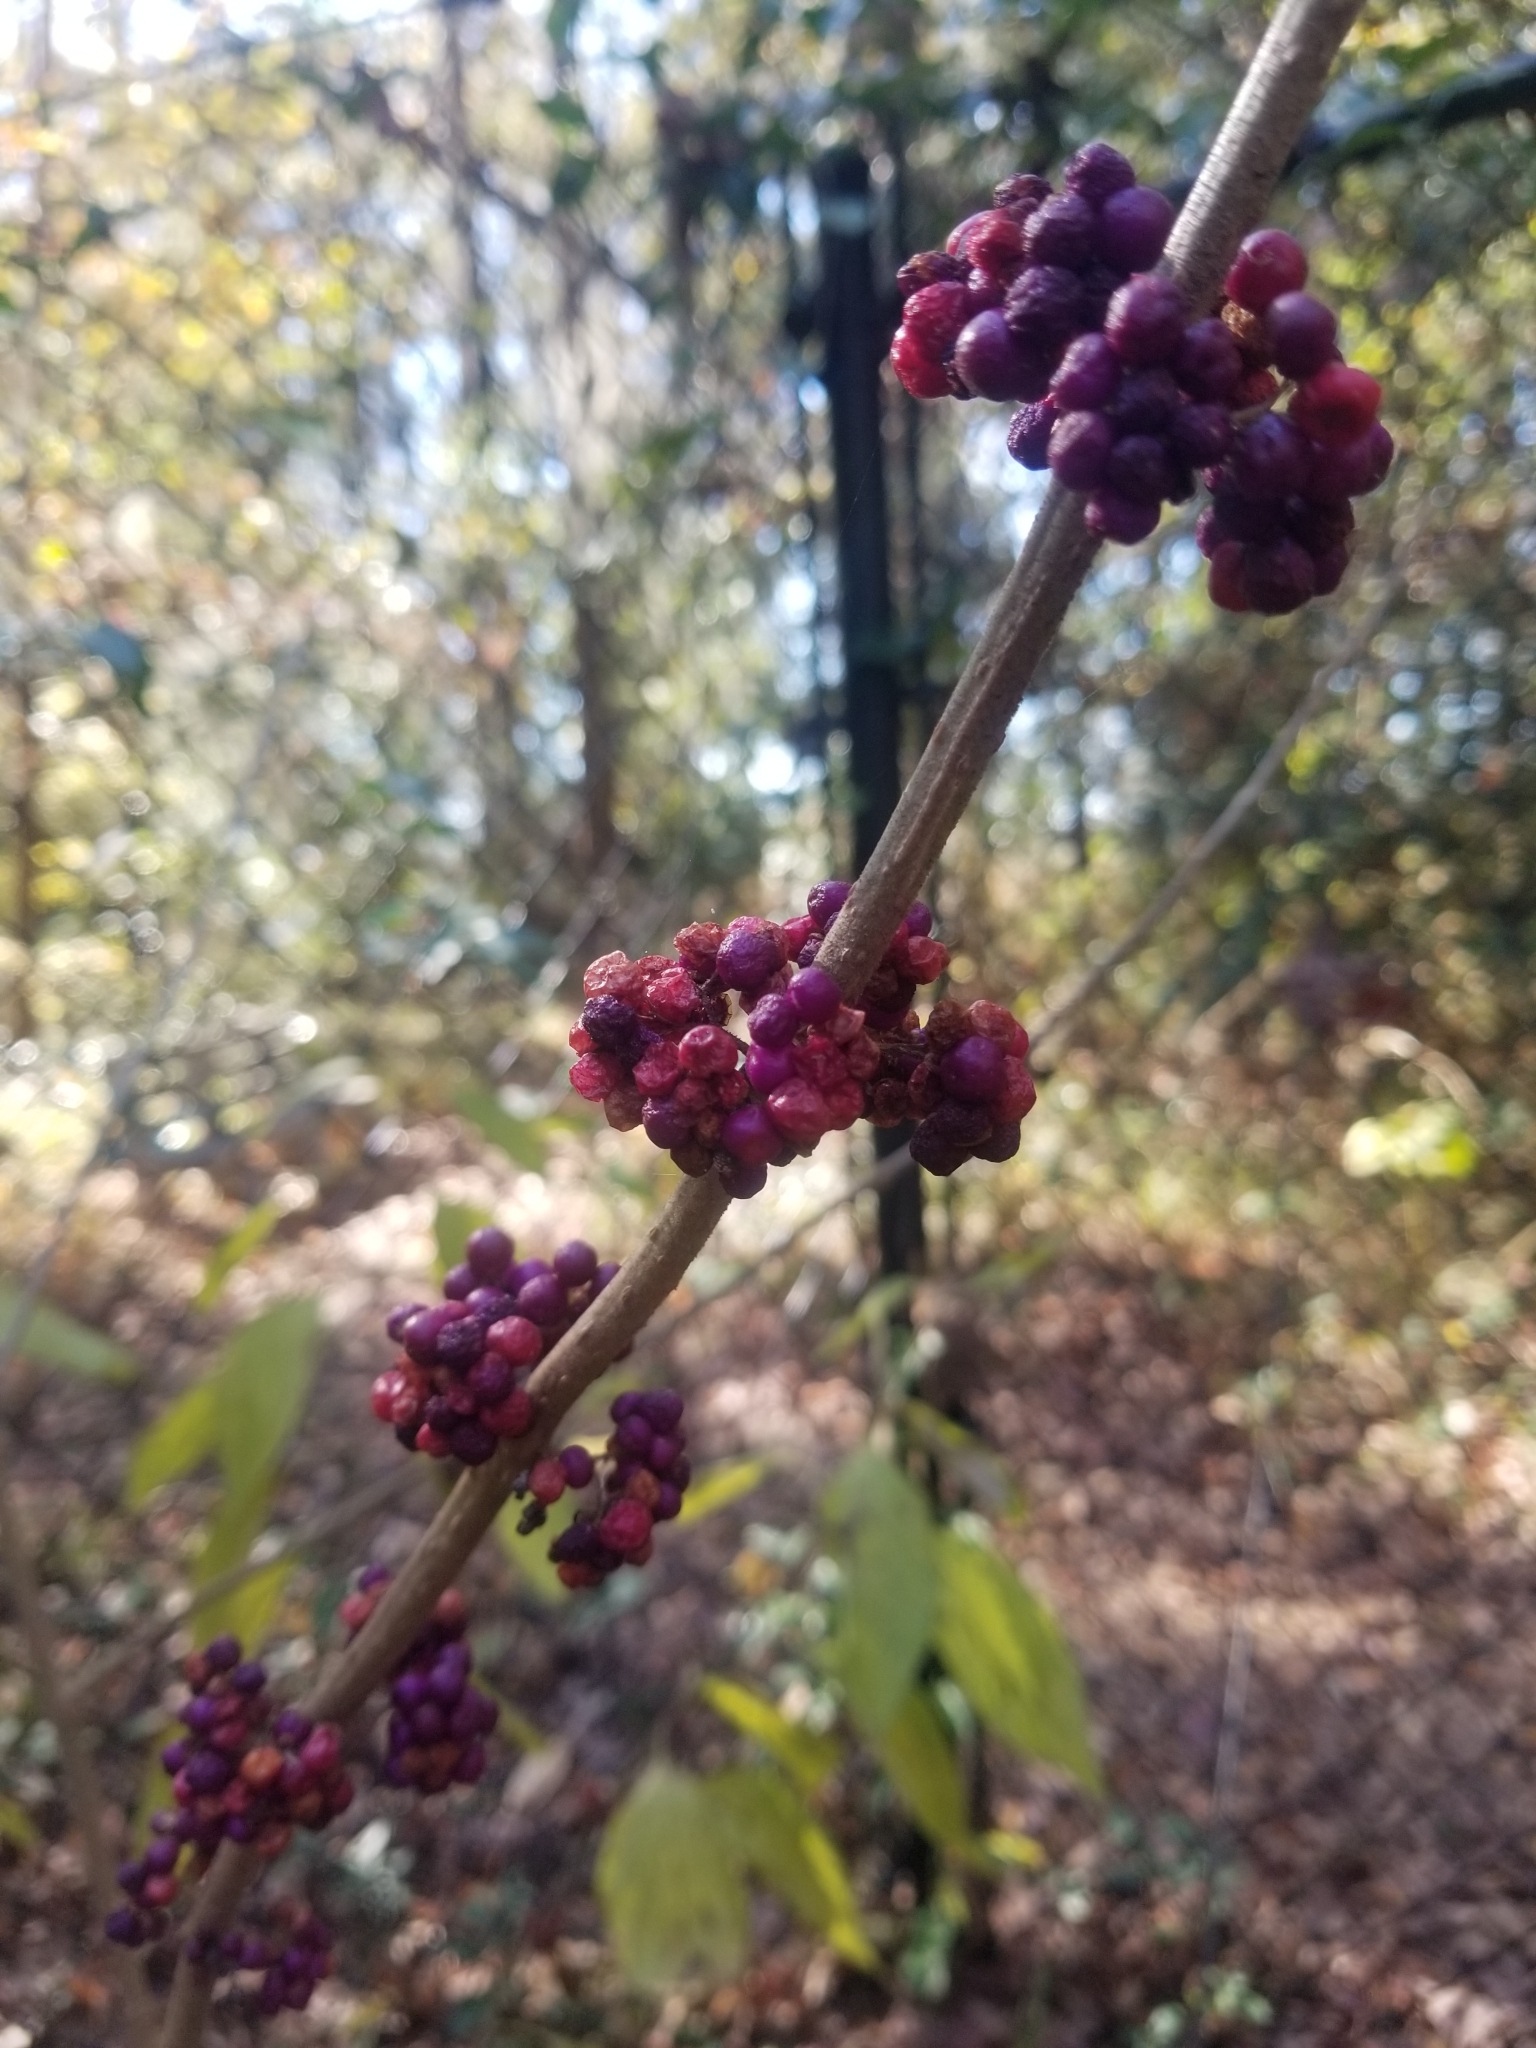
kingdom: Plantae
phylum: Tracheophyta
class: Magnoliopsida
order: Lamiales
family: Lamiaceae
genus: Callicarpa
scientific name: Callicarpa americana
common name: American beautyberry
